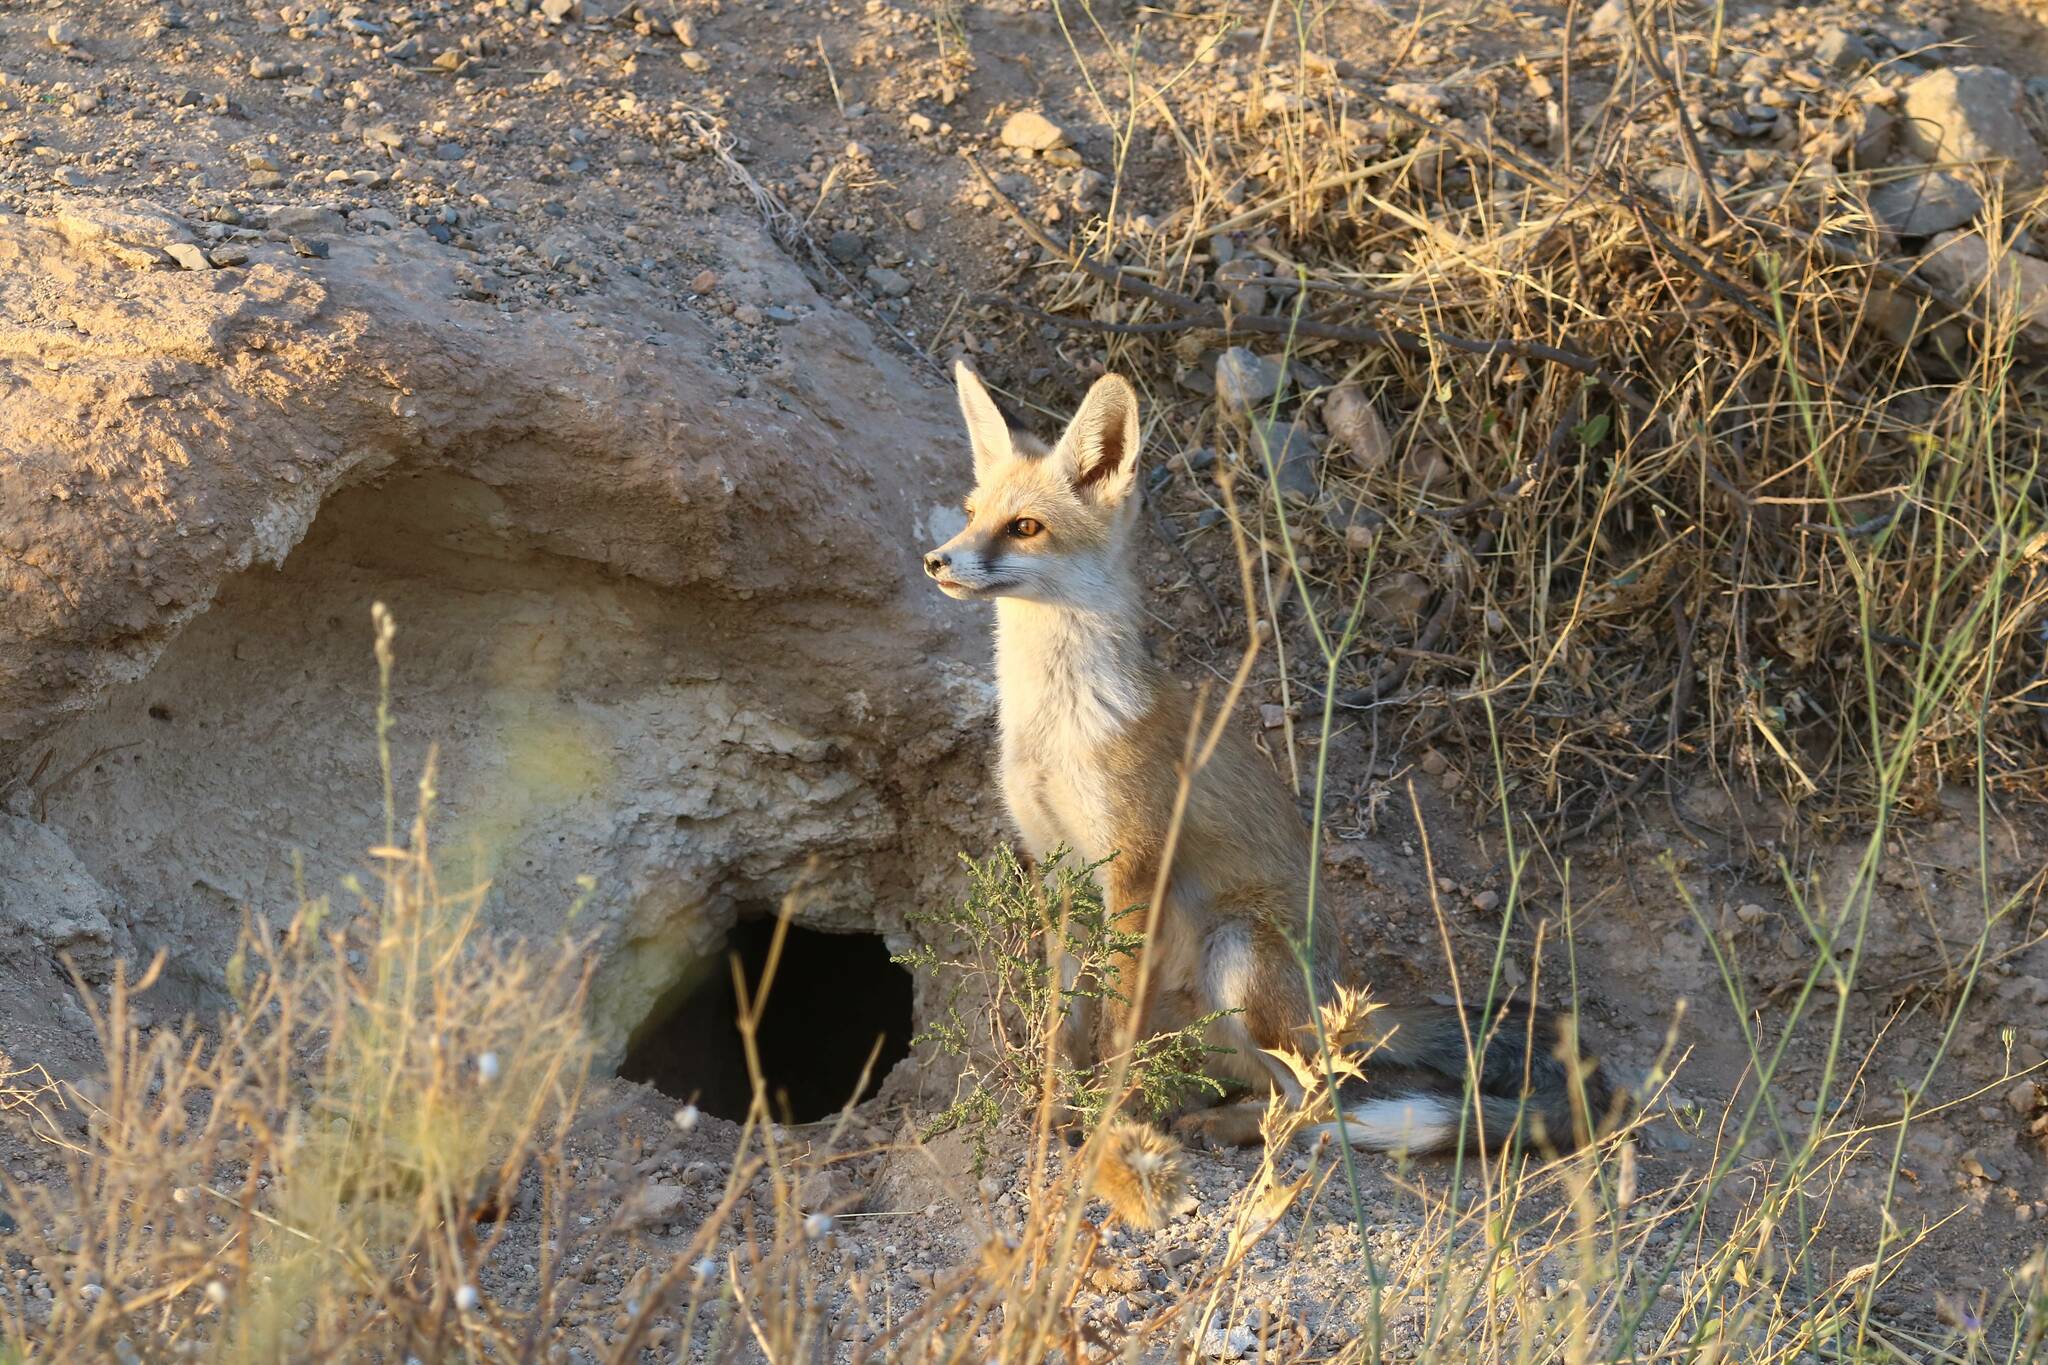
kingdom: Animalia
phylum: Chordata
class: Mammalia
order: Carnivora
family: Canidae
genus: Vulpes
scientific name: Vulpes vulpes
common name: Red fox
